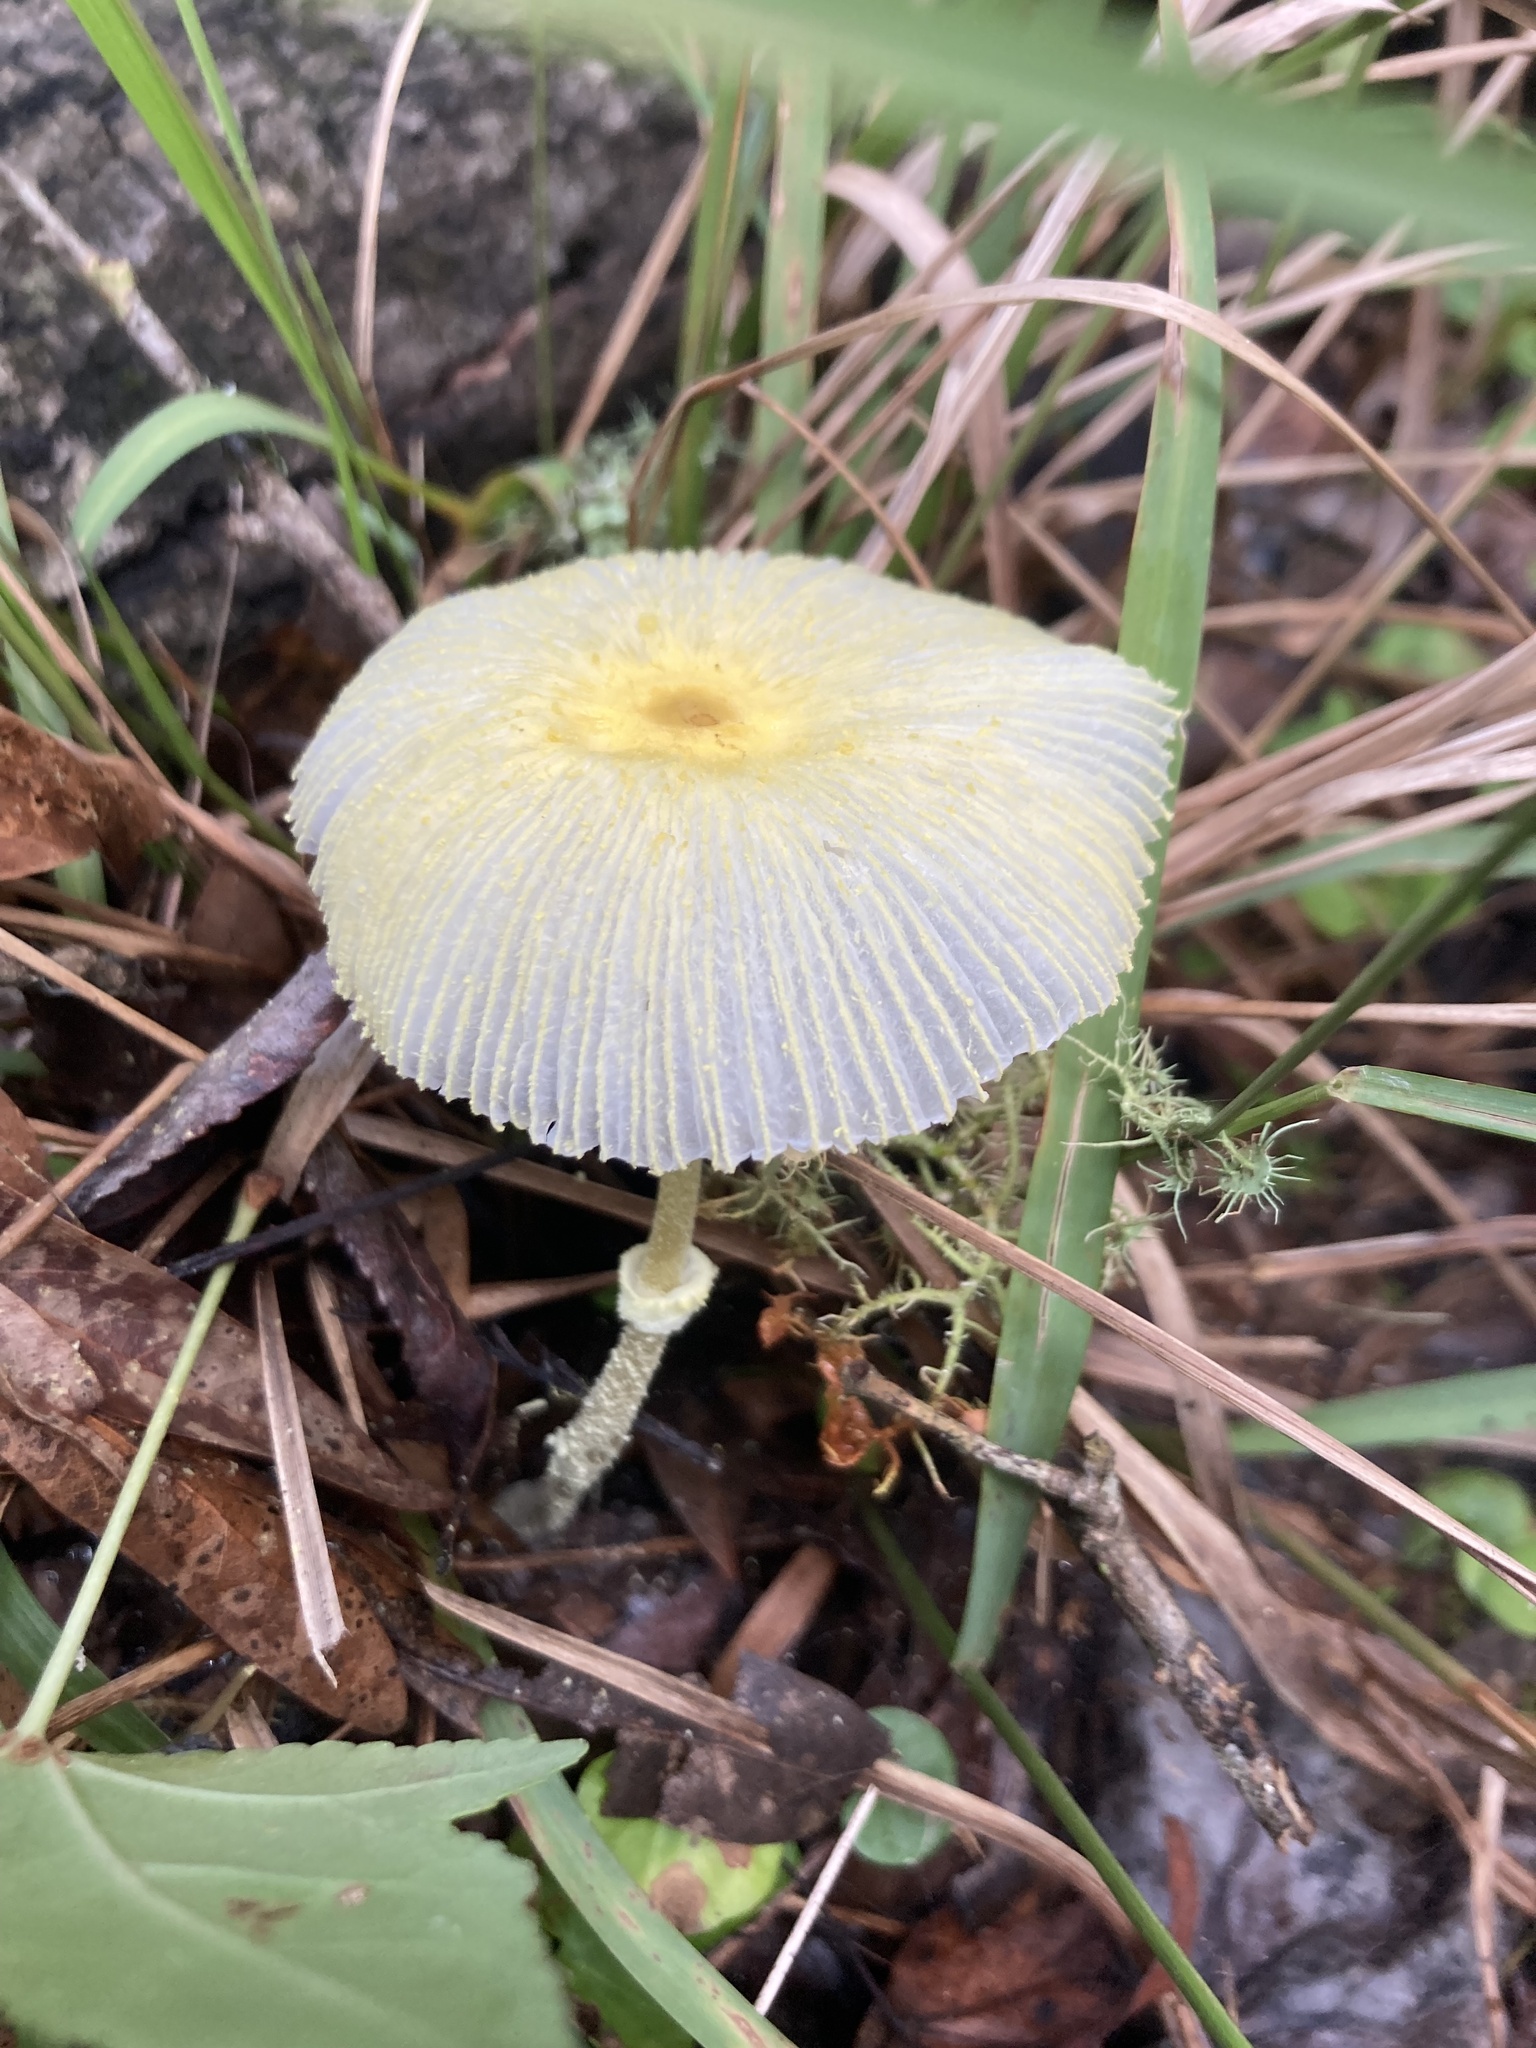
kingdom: Fungi
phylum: Basidiomycota
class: Agaricomycetes
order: Agaricales
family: Agaricaceae
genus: Leucocoprinus
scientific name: Leucocoprinus fragilissimus
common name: Fragile dapperling
